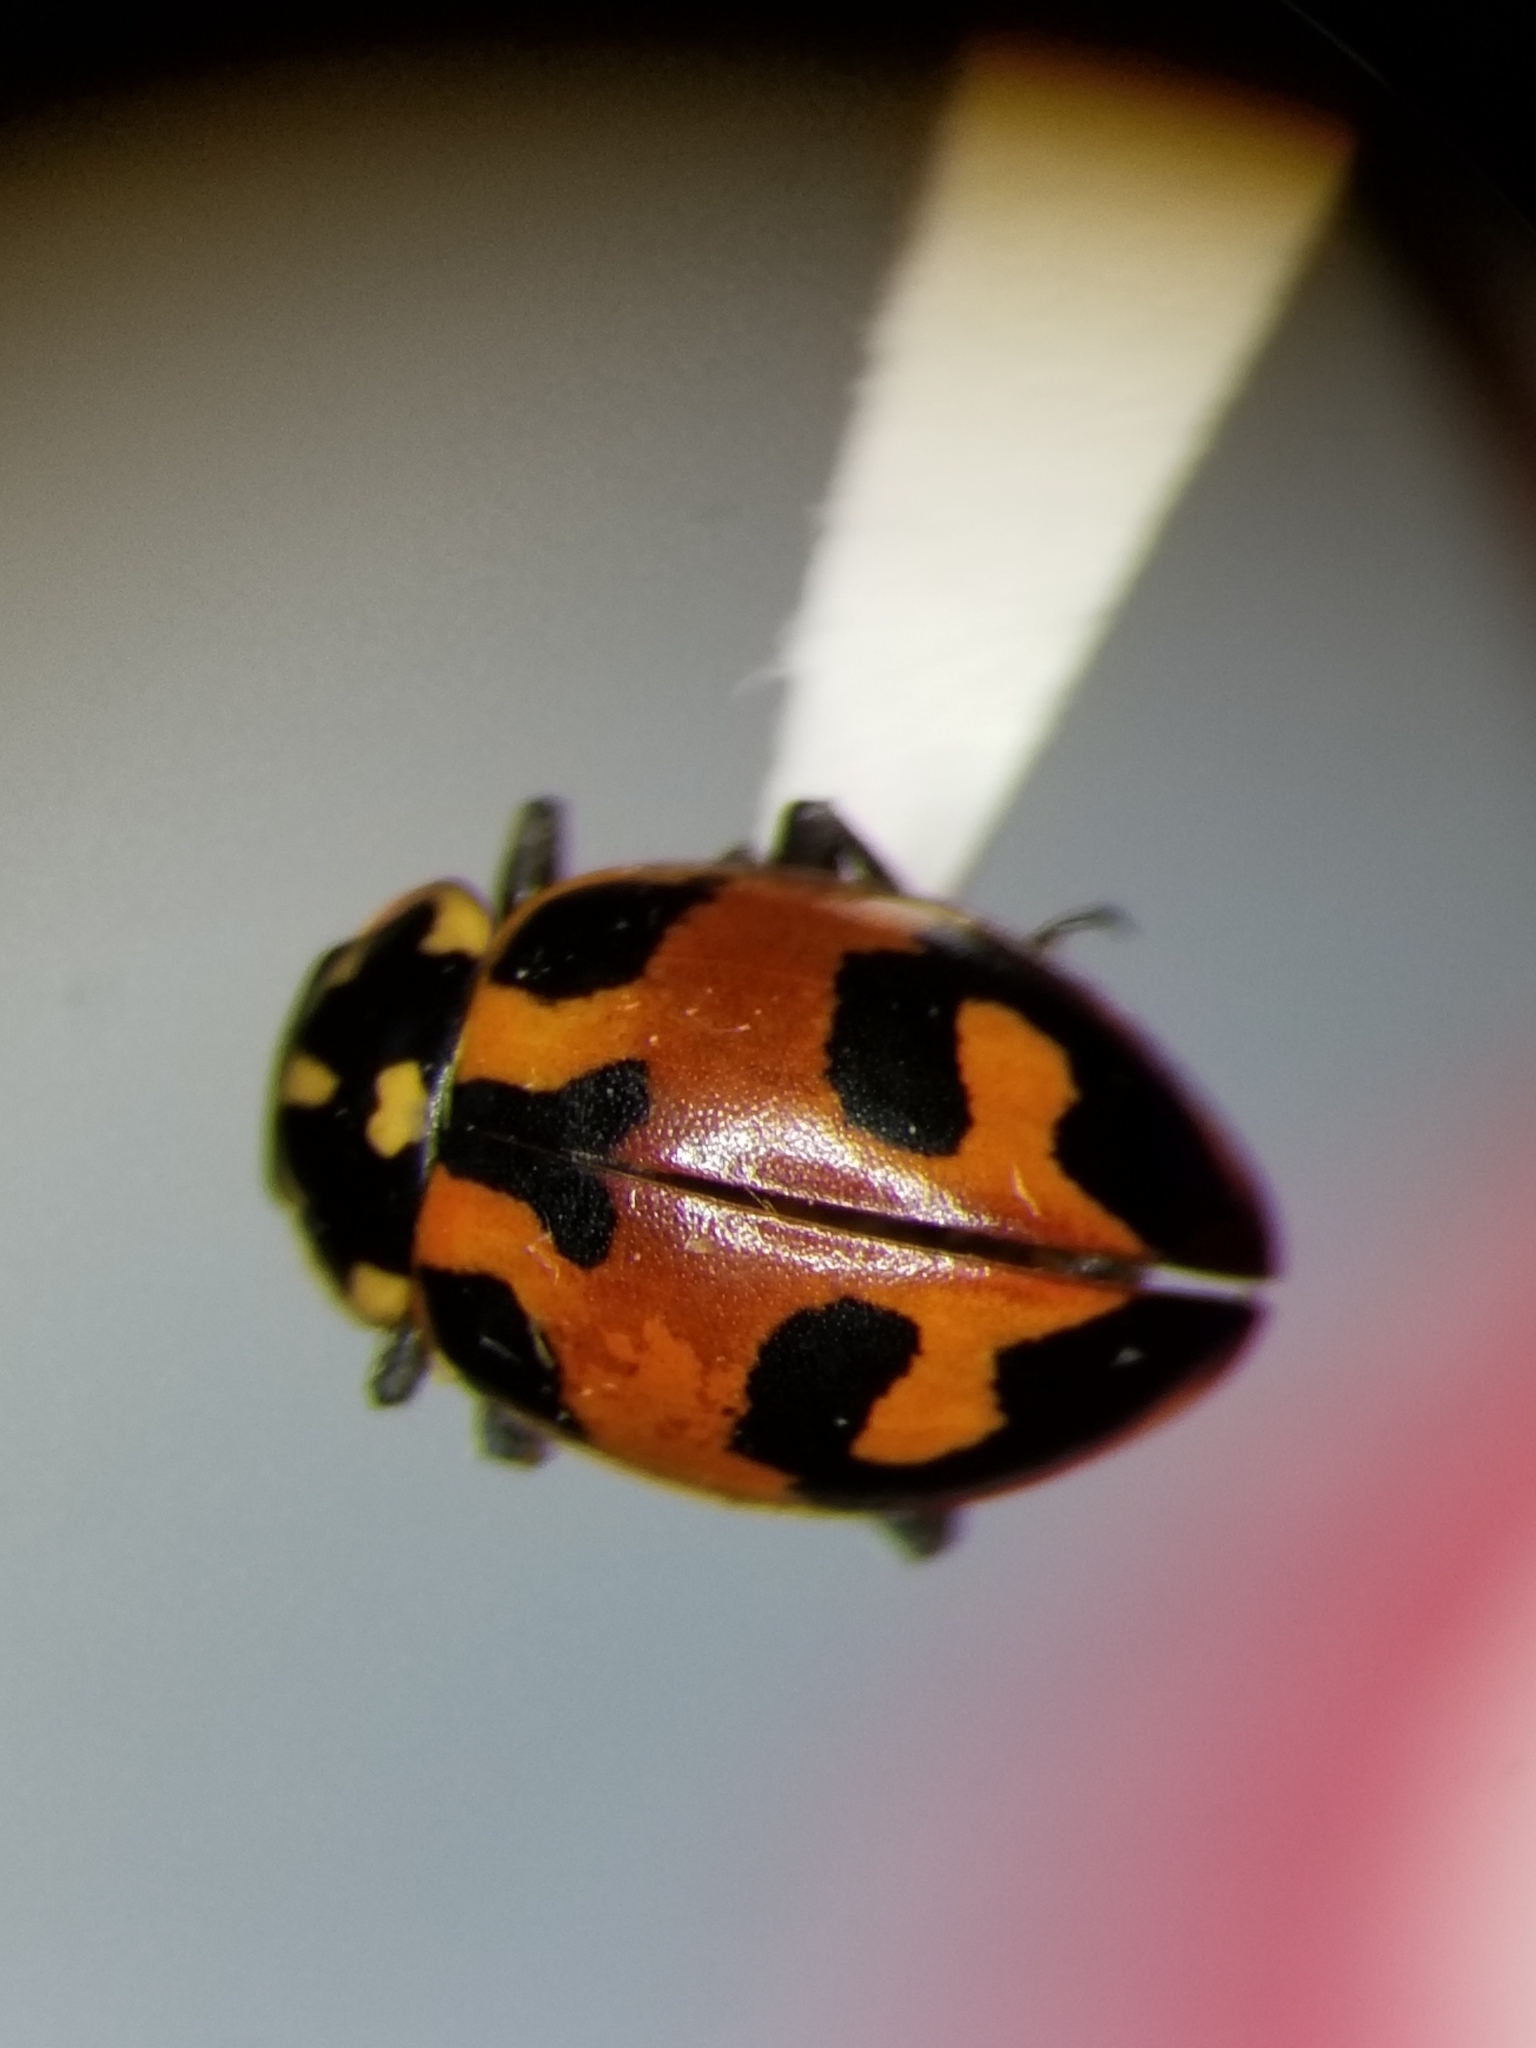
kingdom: Animalia
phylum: Arthropoda
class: Insecta
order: Coleoptera
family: Coccinellidae
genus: Hippodamia
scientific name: Hippodamia parenthesis
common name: Parenthesis lady beetle
